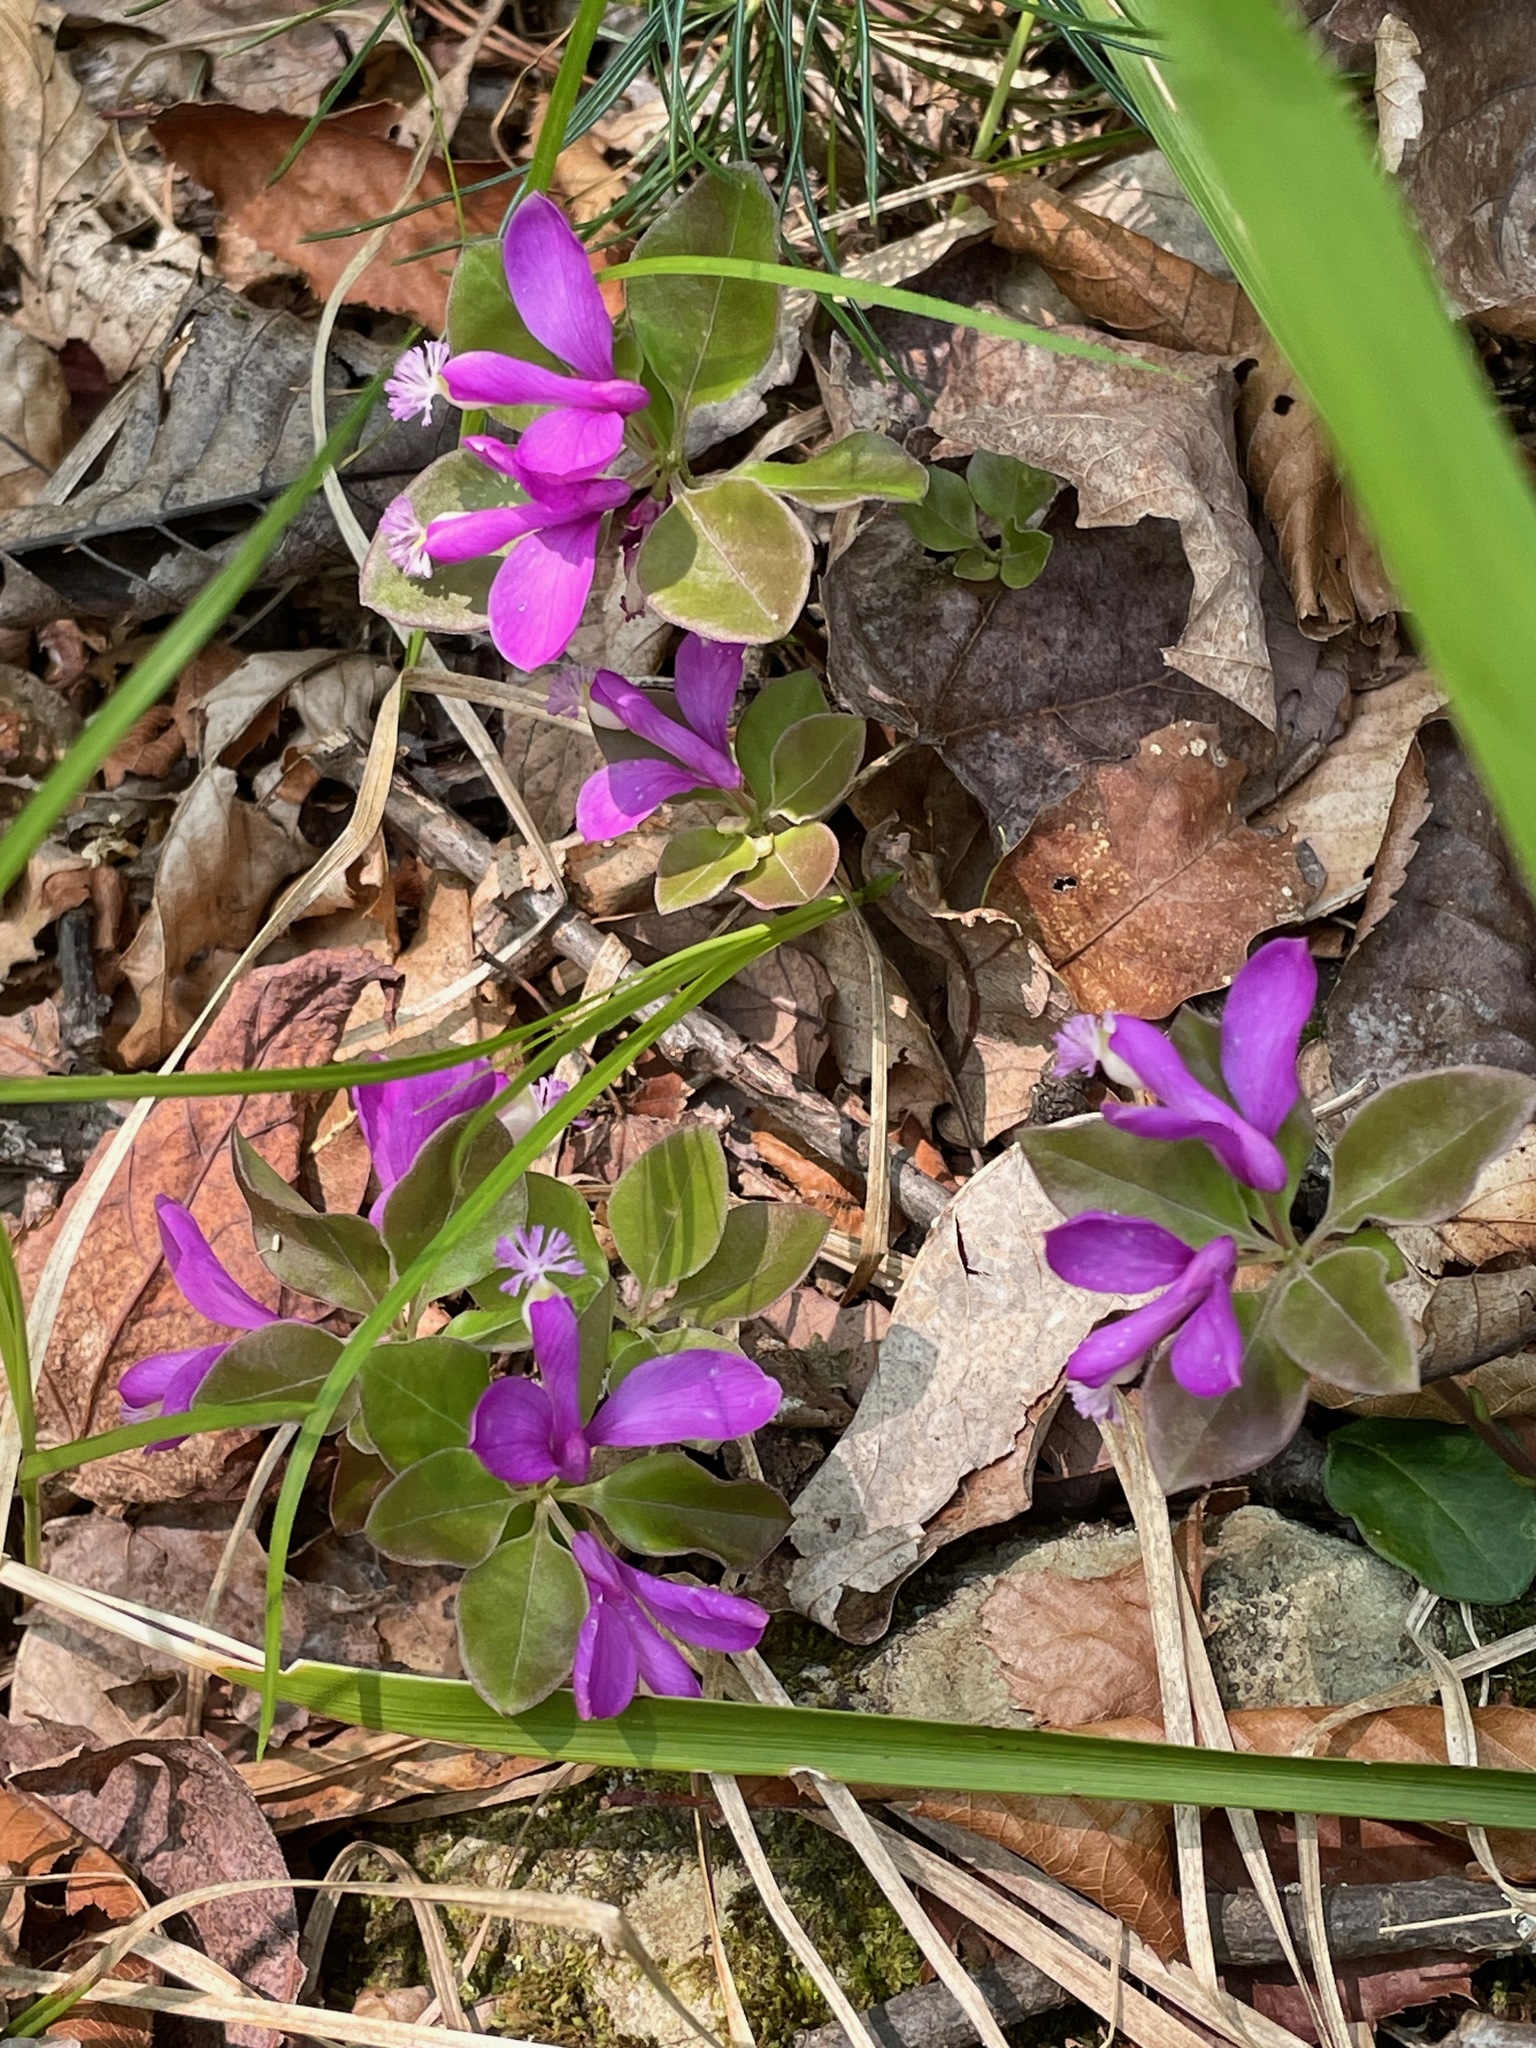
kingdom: Plantae
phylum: Tracheophyta
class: Magnoliopsida
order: Fabales
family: Polygalaceae
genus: Polygaloides
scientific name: Polygaloides paucifolia
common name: Bird-on-the-wing
